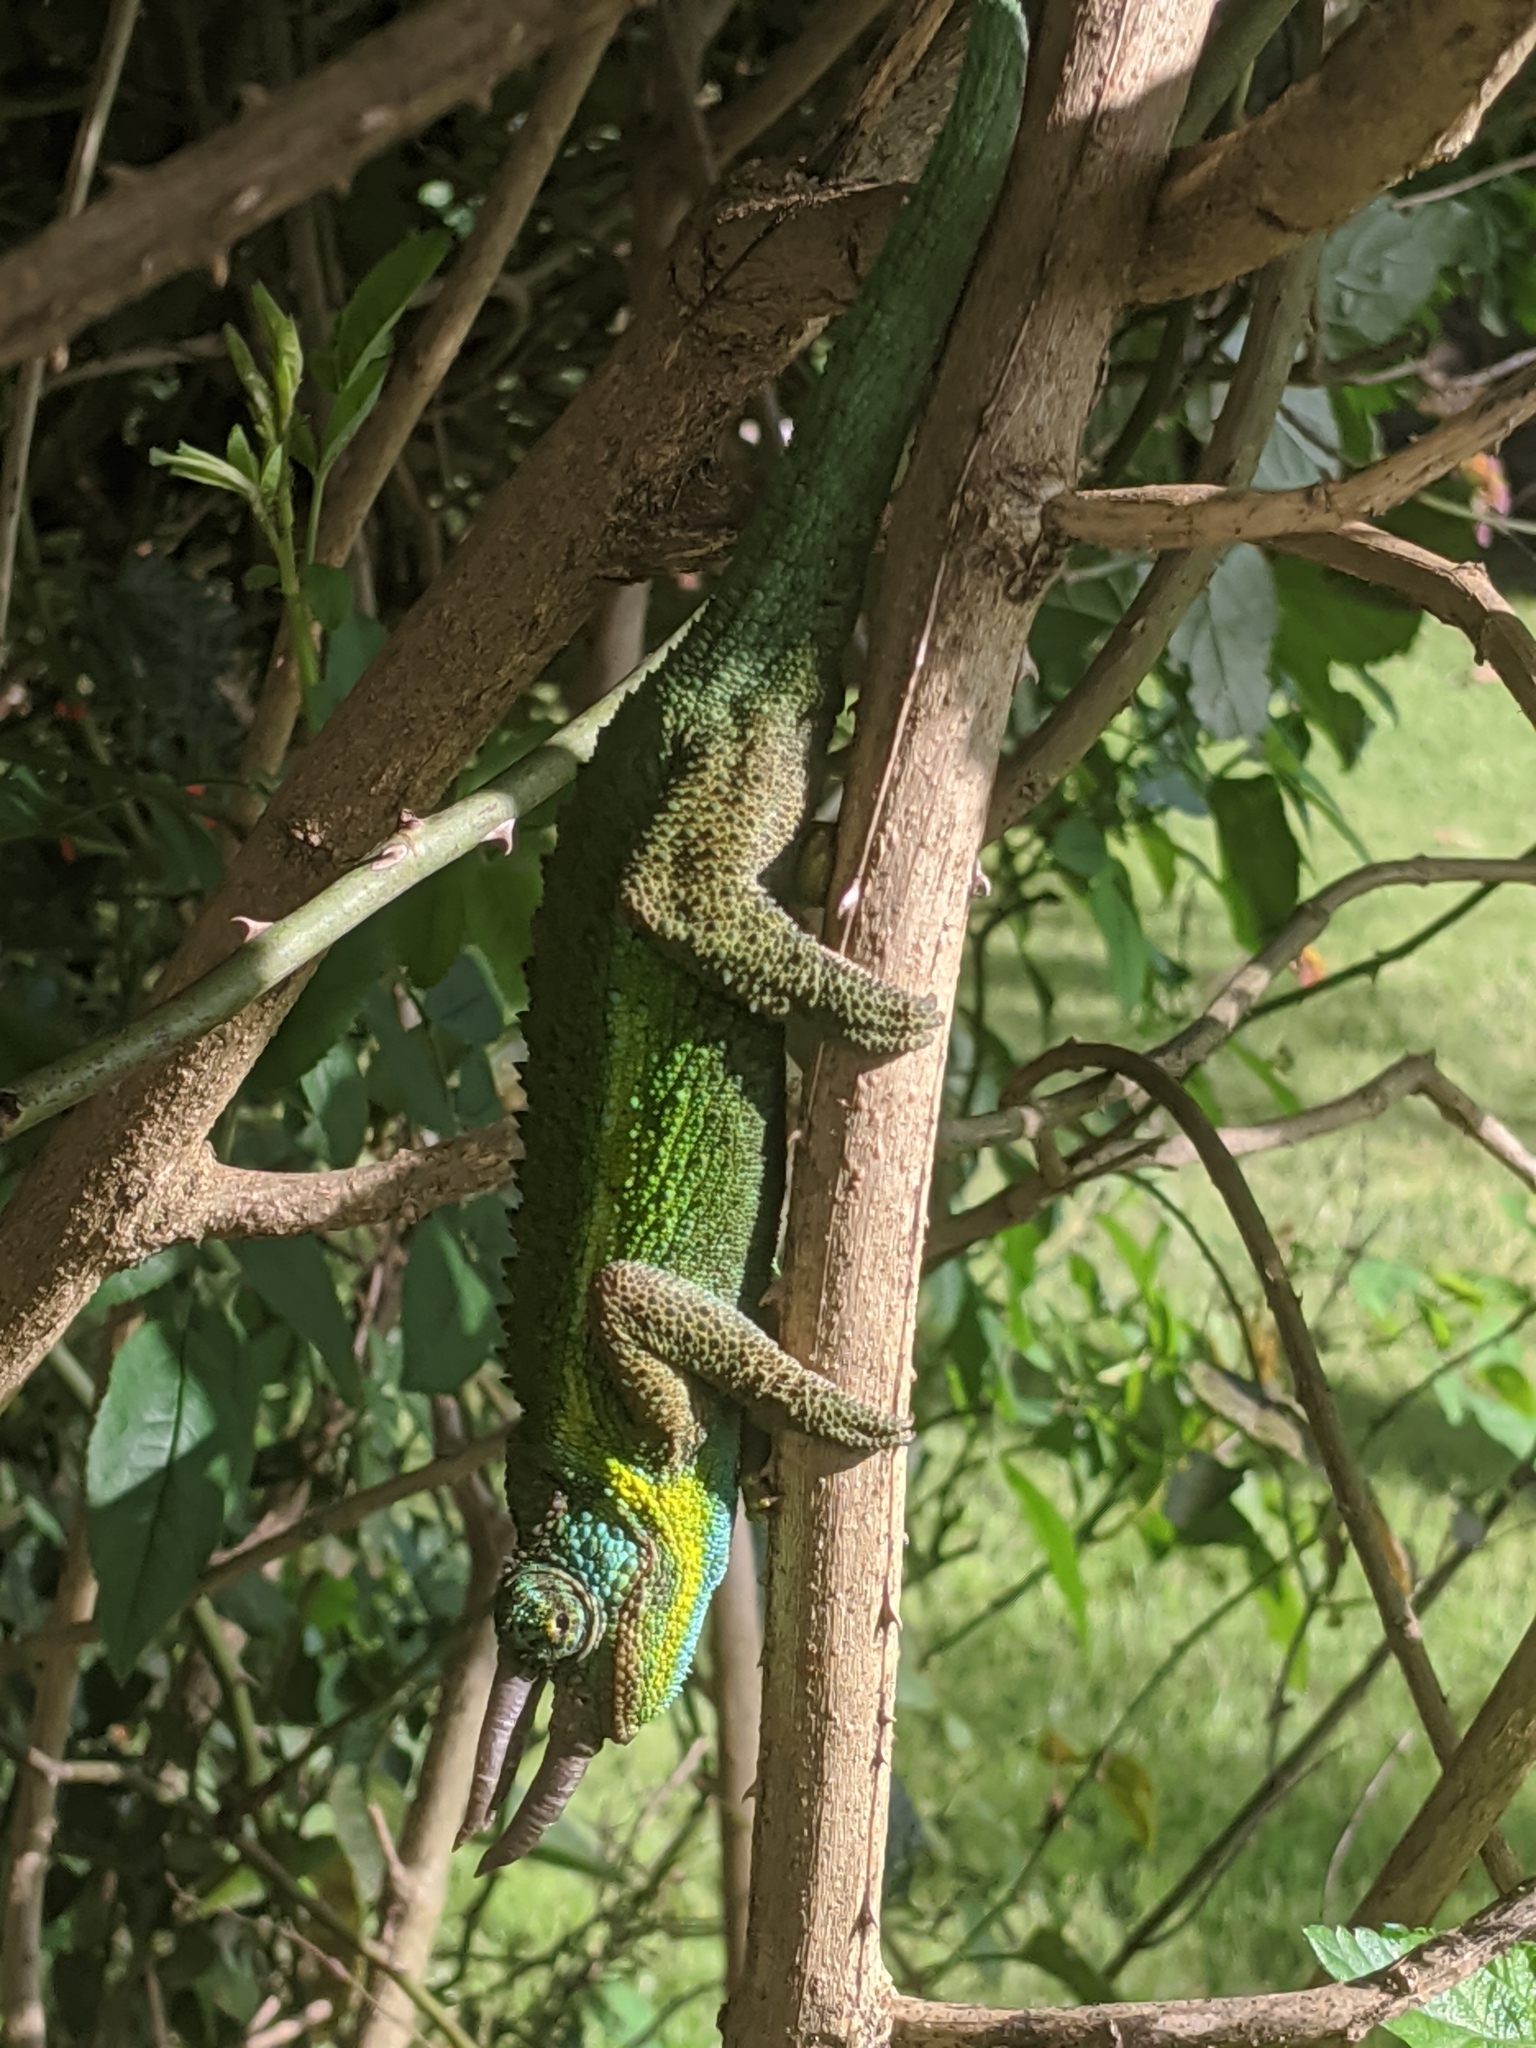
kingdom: Animalia
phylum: Chordata
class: Squamata
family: Chamaeleonidae
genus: Trioceros
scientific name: Trioceros jacksonii
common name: Jackson's chameleon
